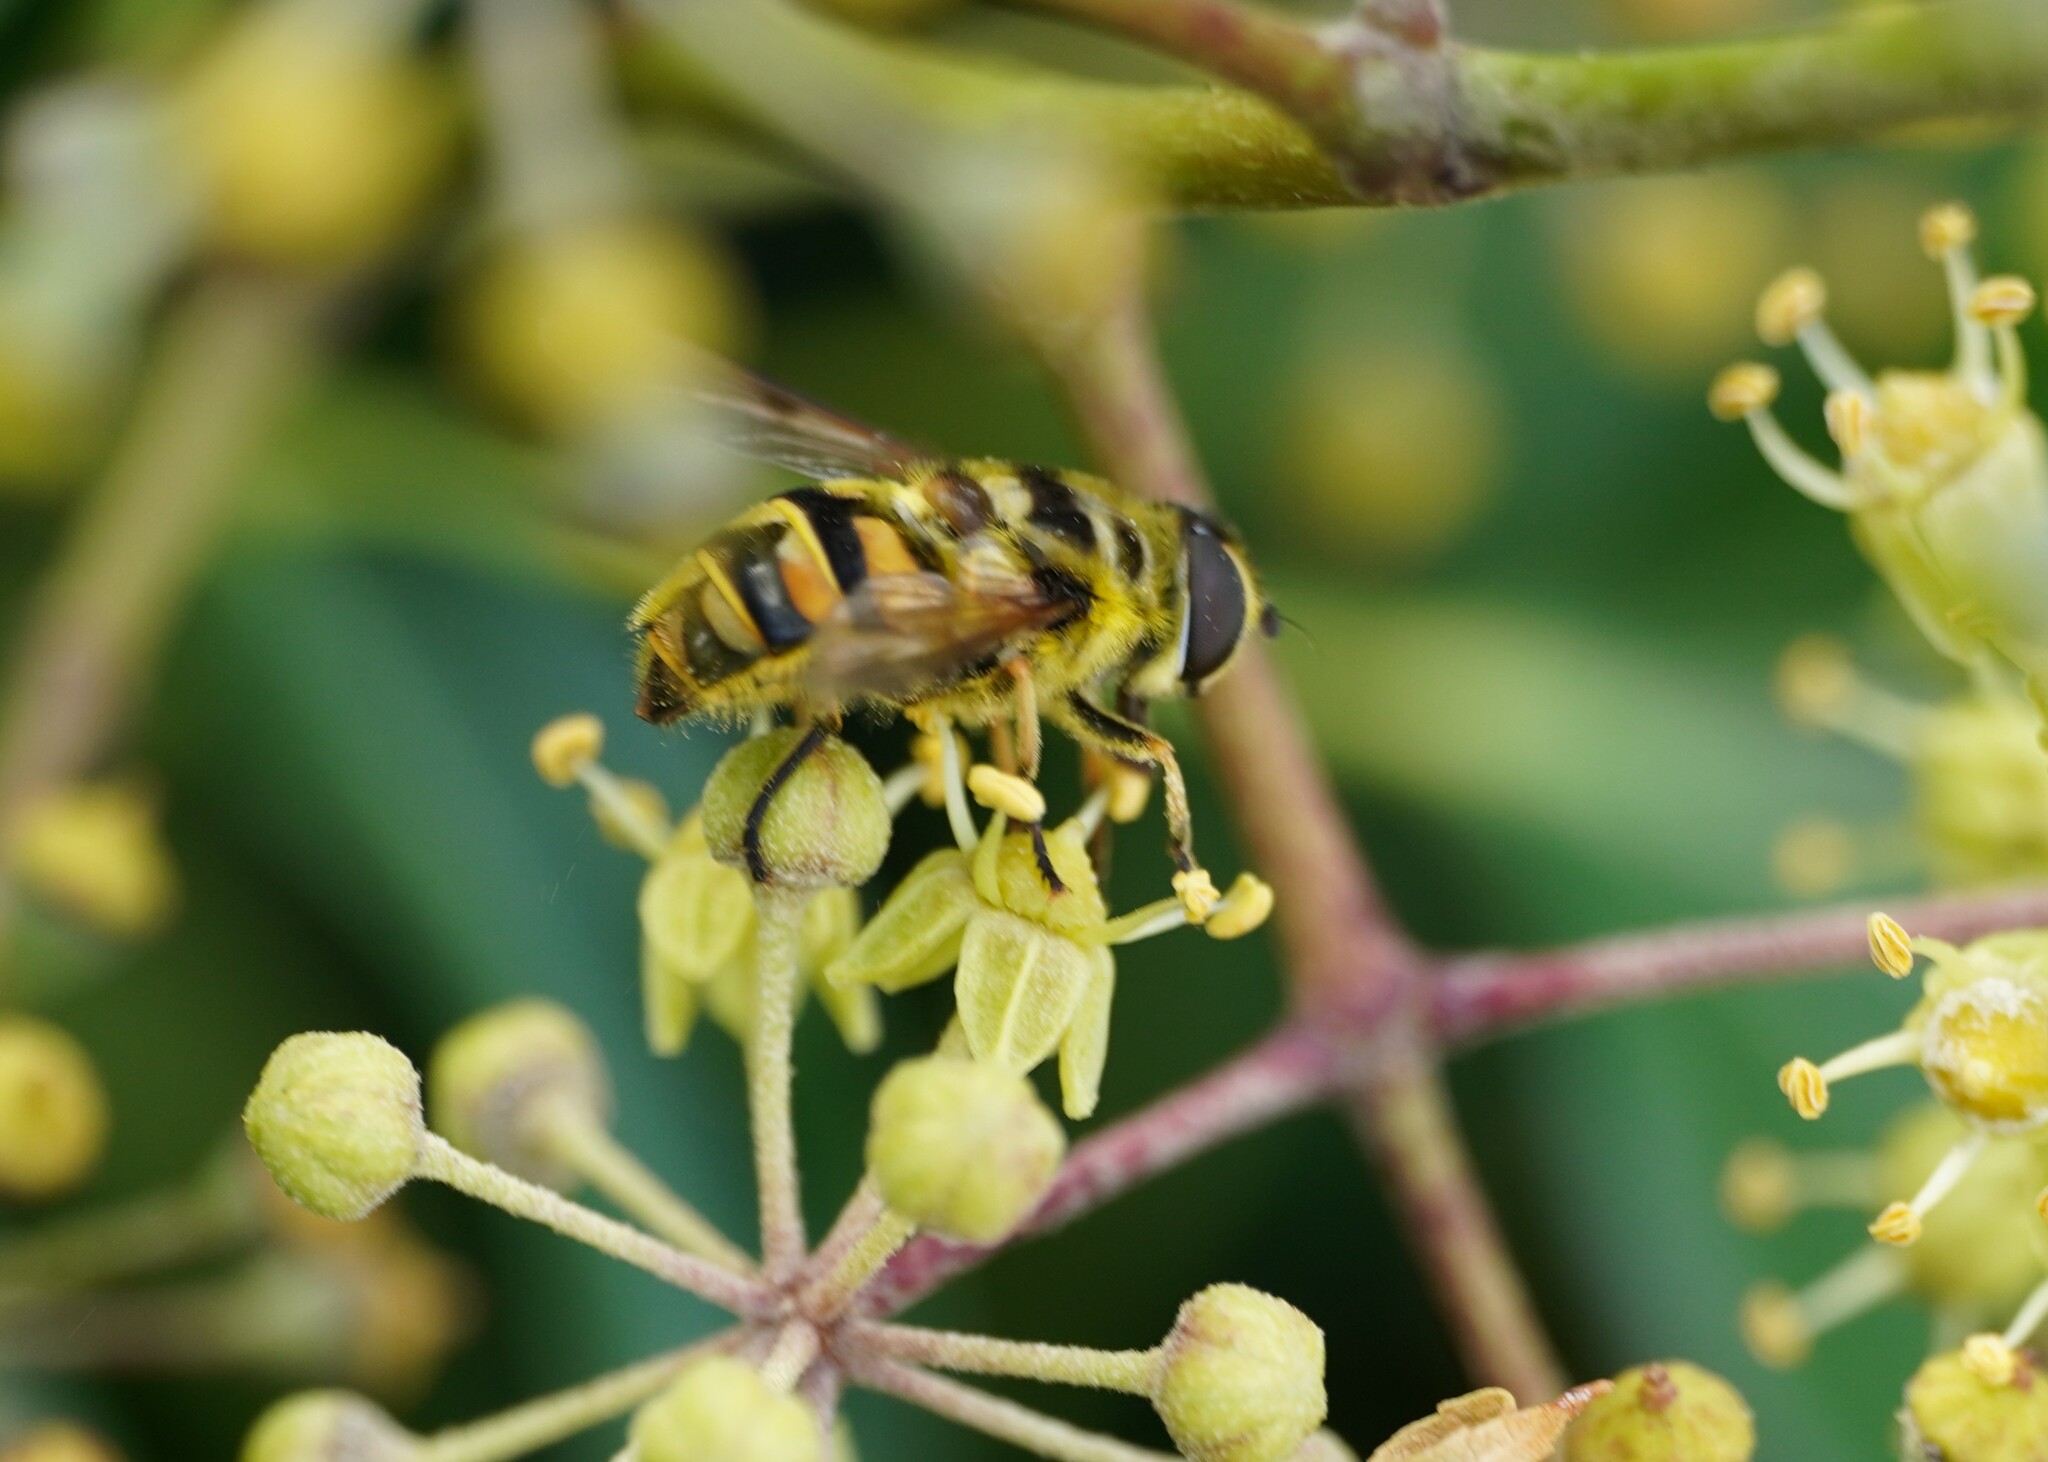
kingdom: Animalia
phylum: Arthropoda
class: Insecta
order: Diptera
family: Syrphidae
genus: Myathropa
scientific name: Myathropa florea
